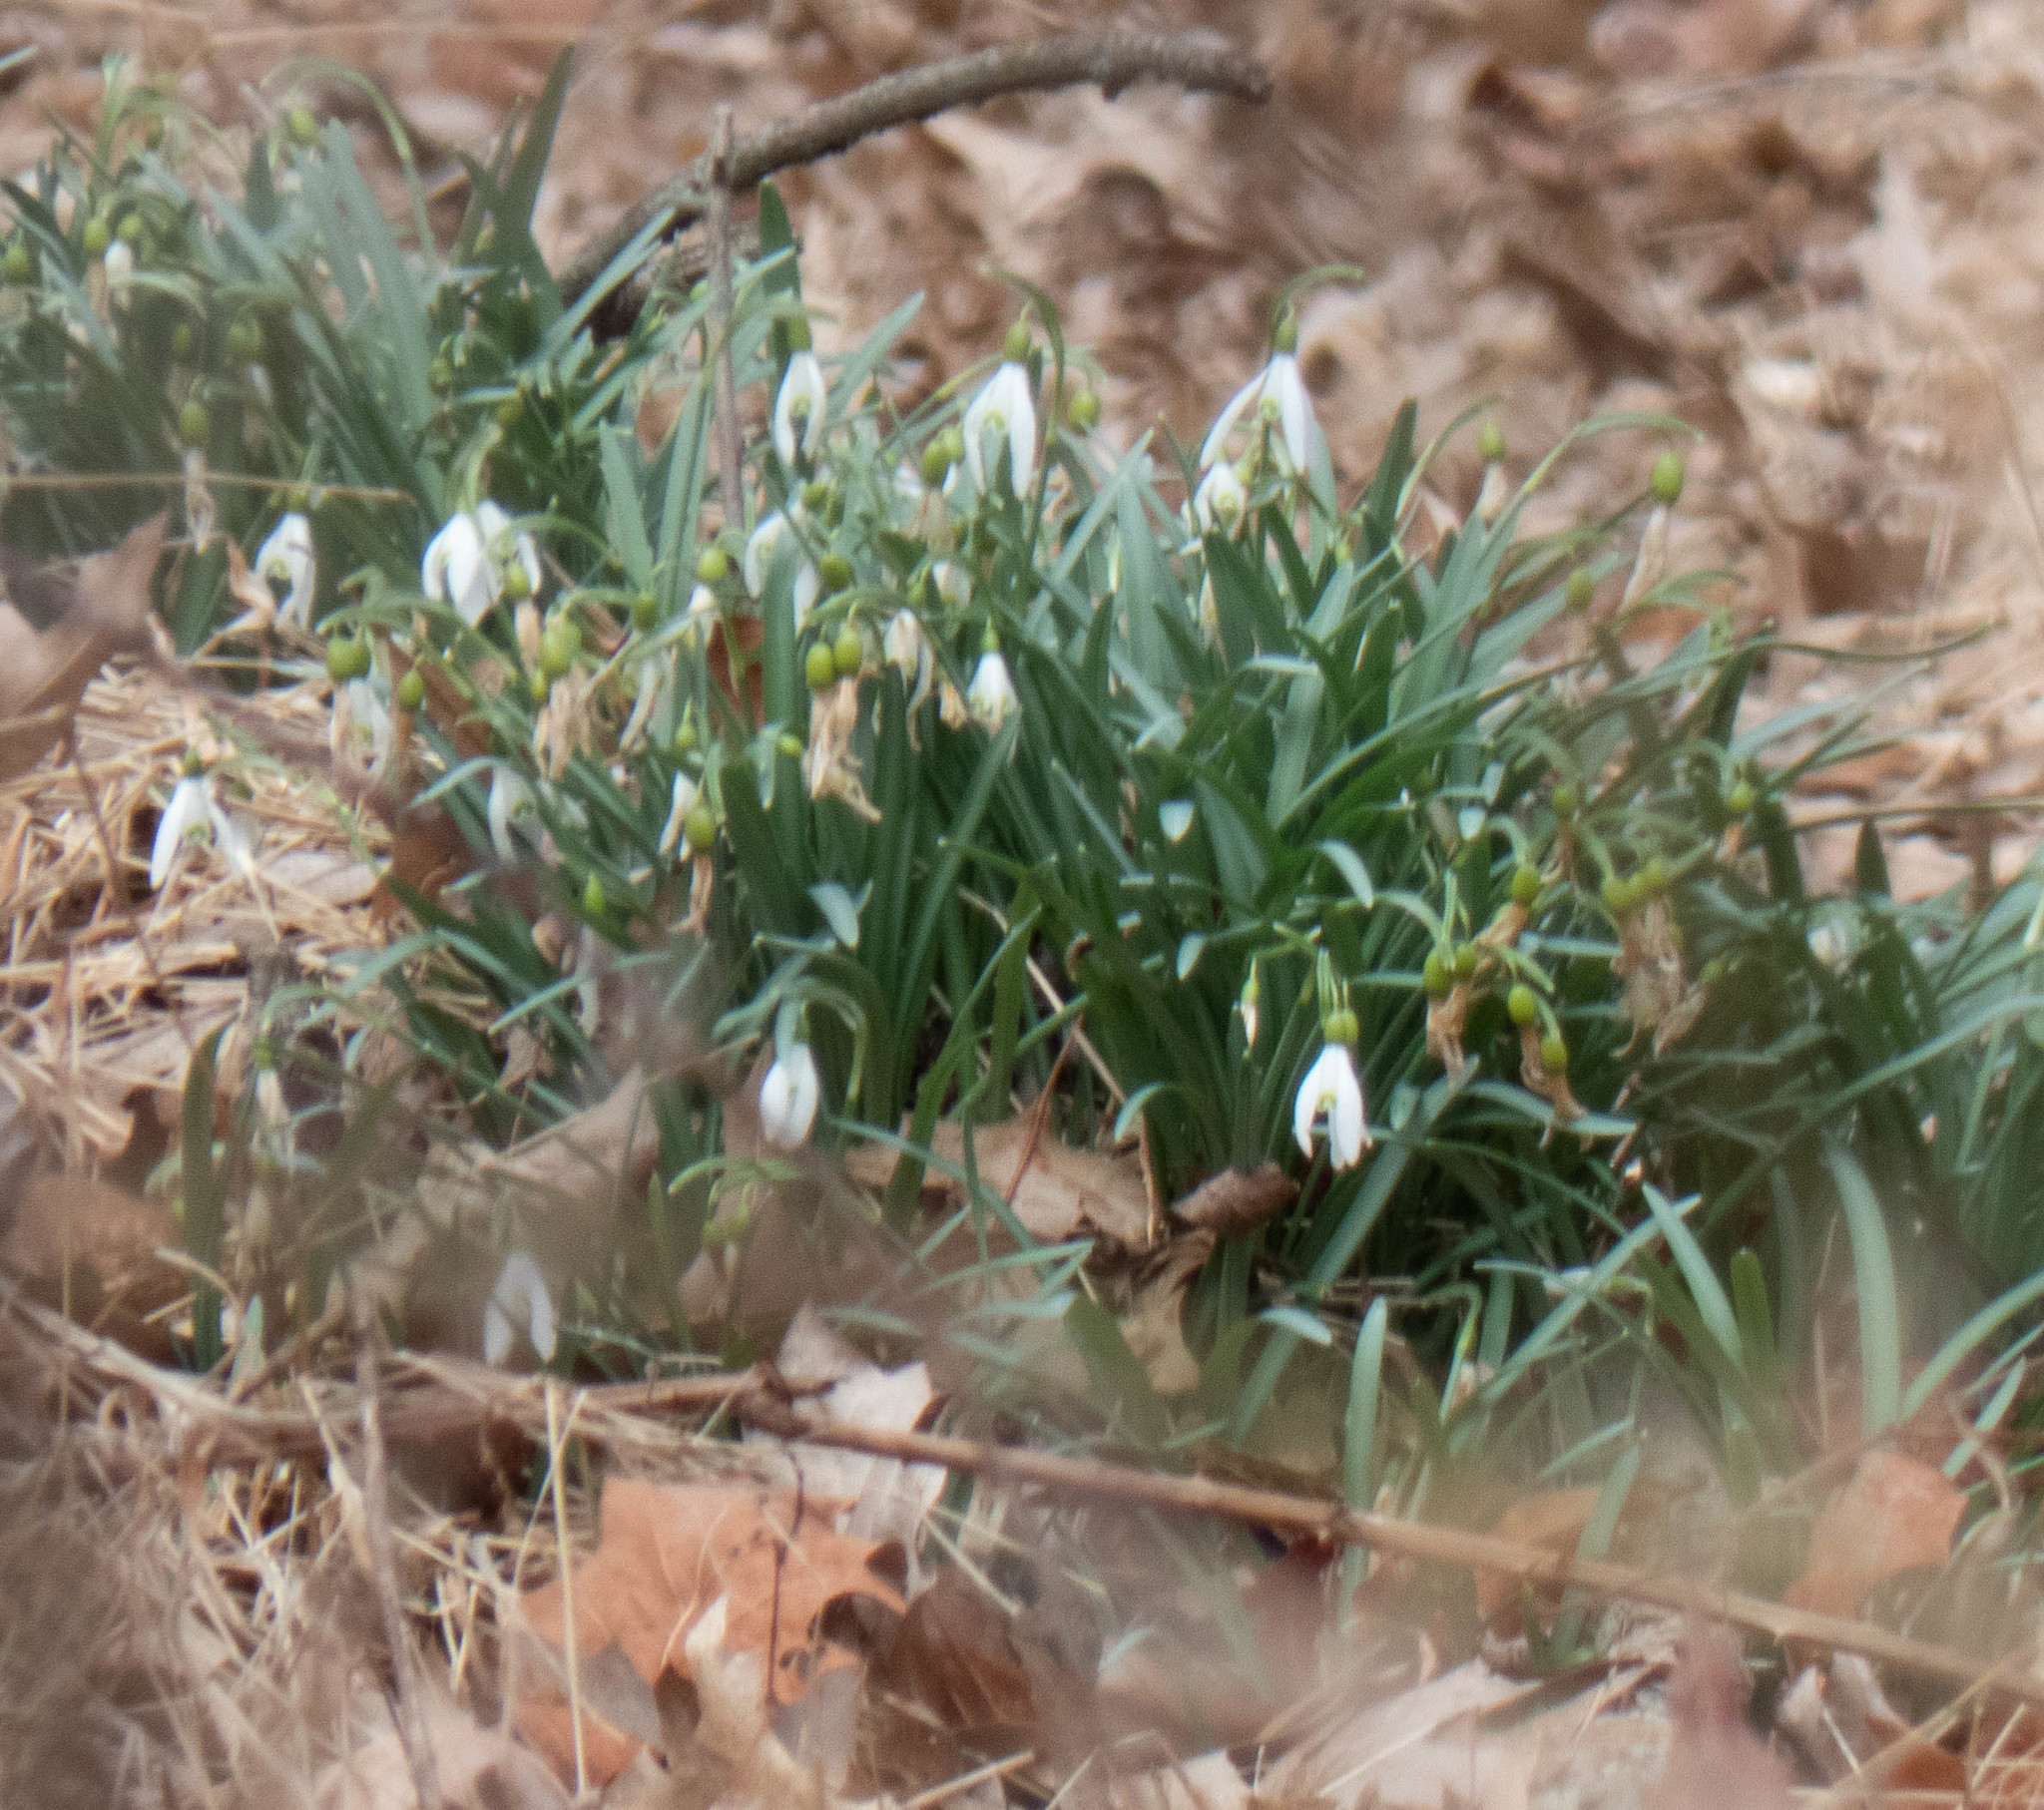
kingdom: Plantae
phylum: Tracheophyta
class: Liliopsida
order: Asparagales
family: Amaryllidaceae
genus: Galanthus
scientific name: Galanthus nivalis
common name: Snowdrop
